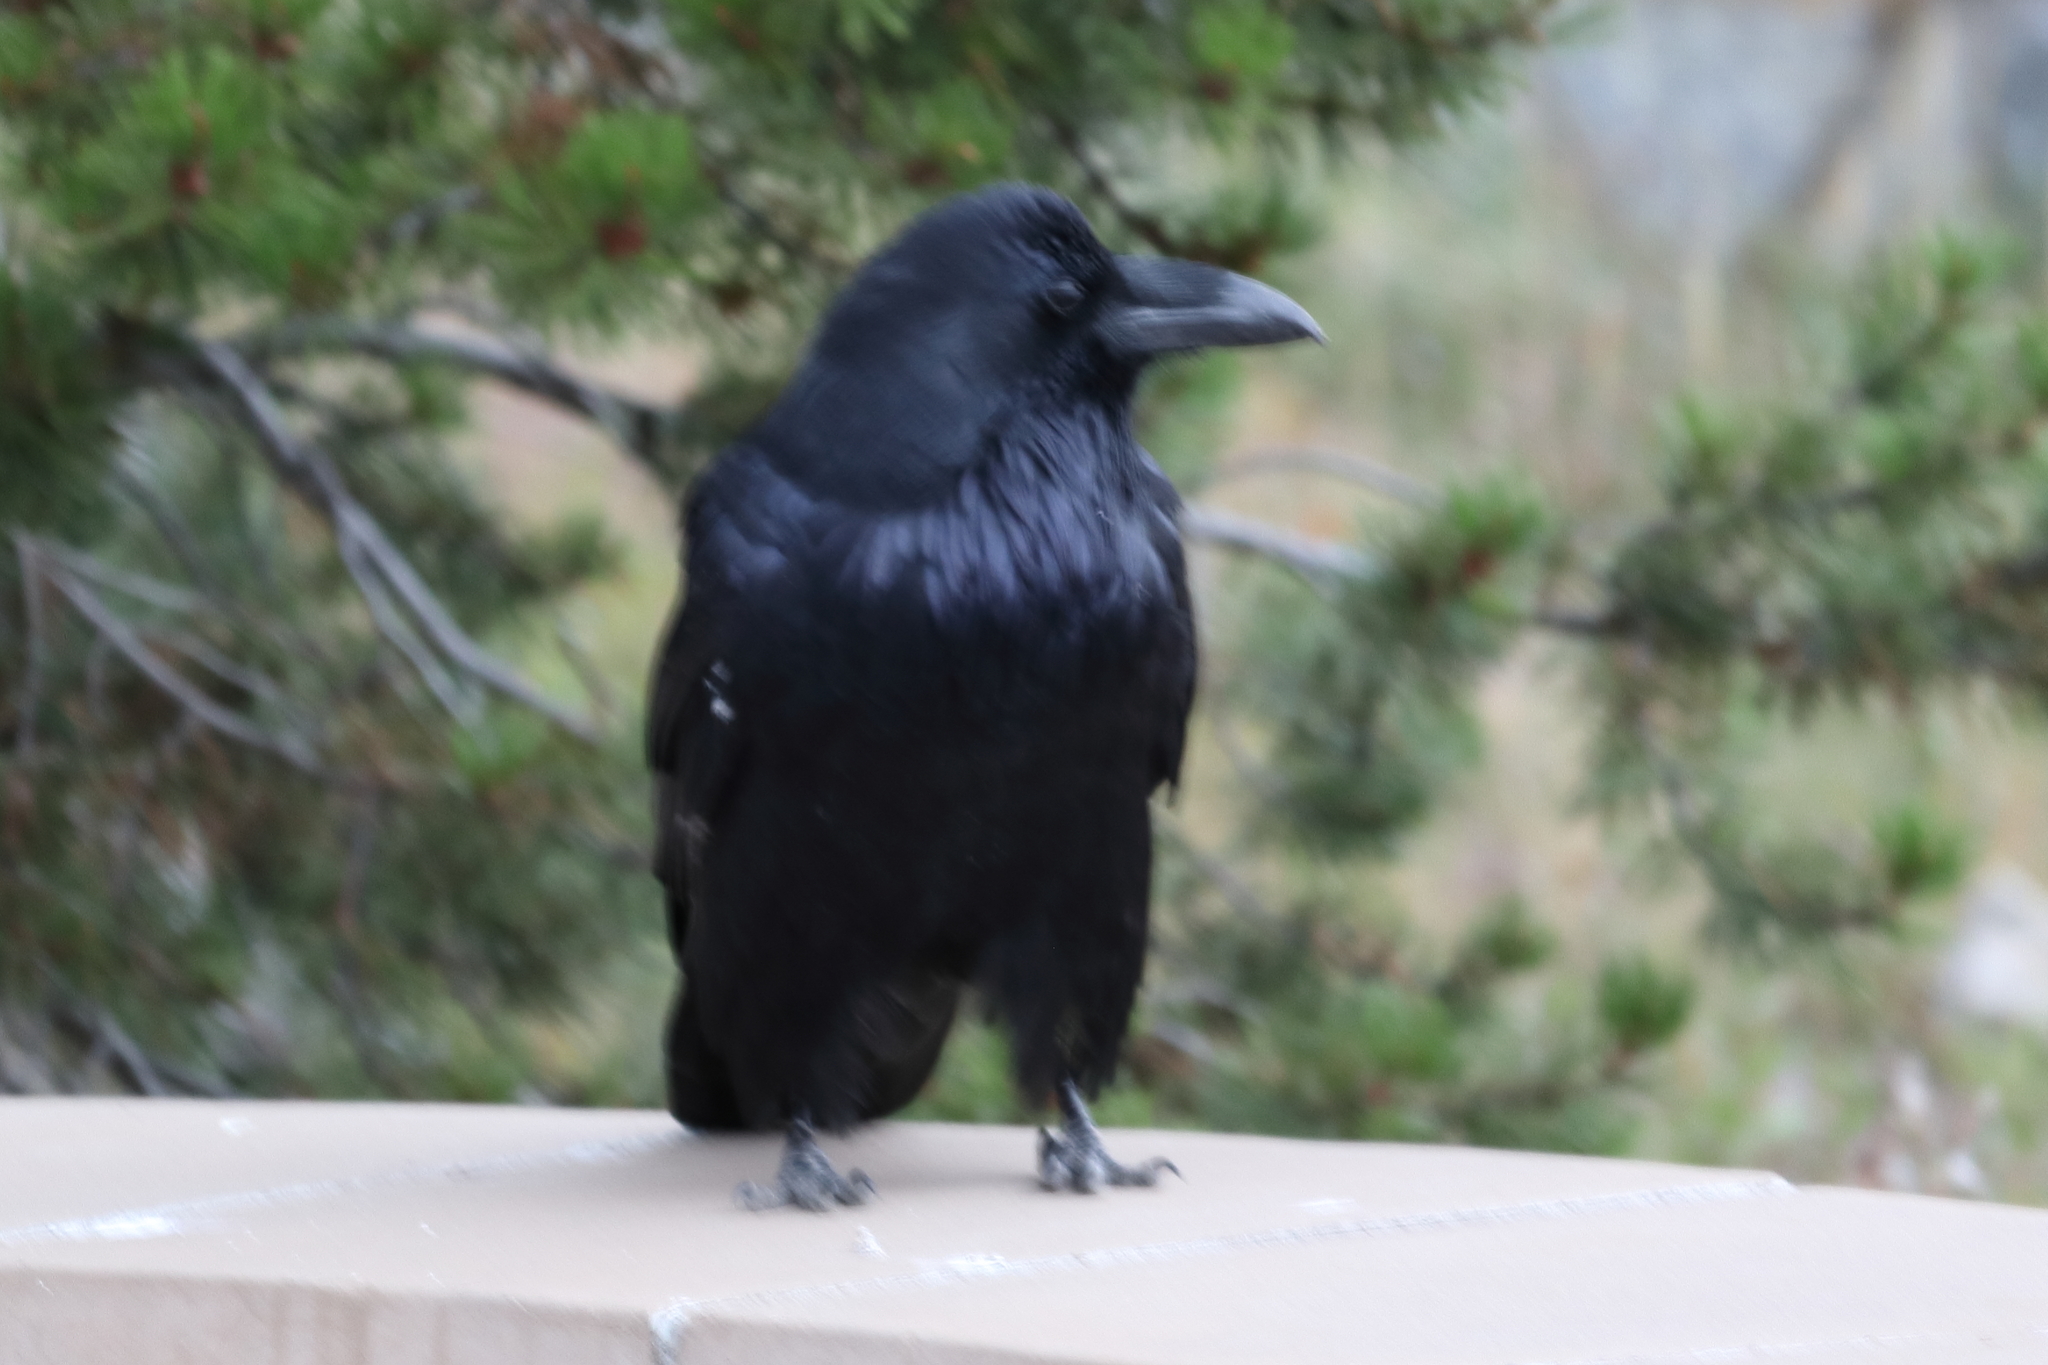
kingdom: Animalia
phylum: Chordata
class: Aves
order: Passeriformes
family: Corvidae
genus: Corvus
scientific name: Corvus corax
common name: Common raven
